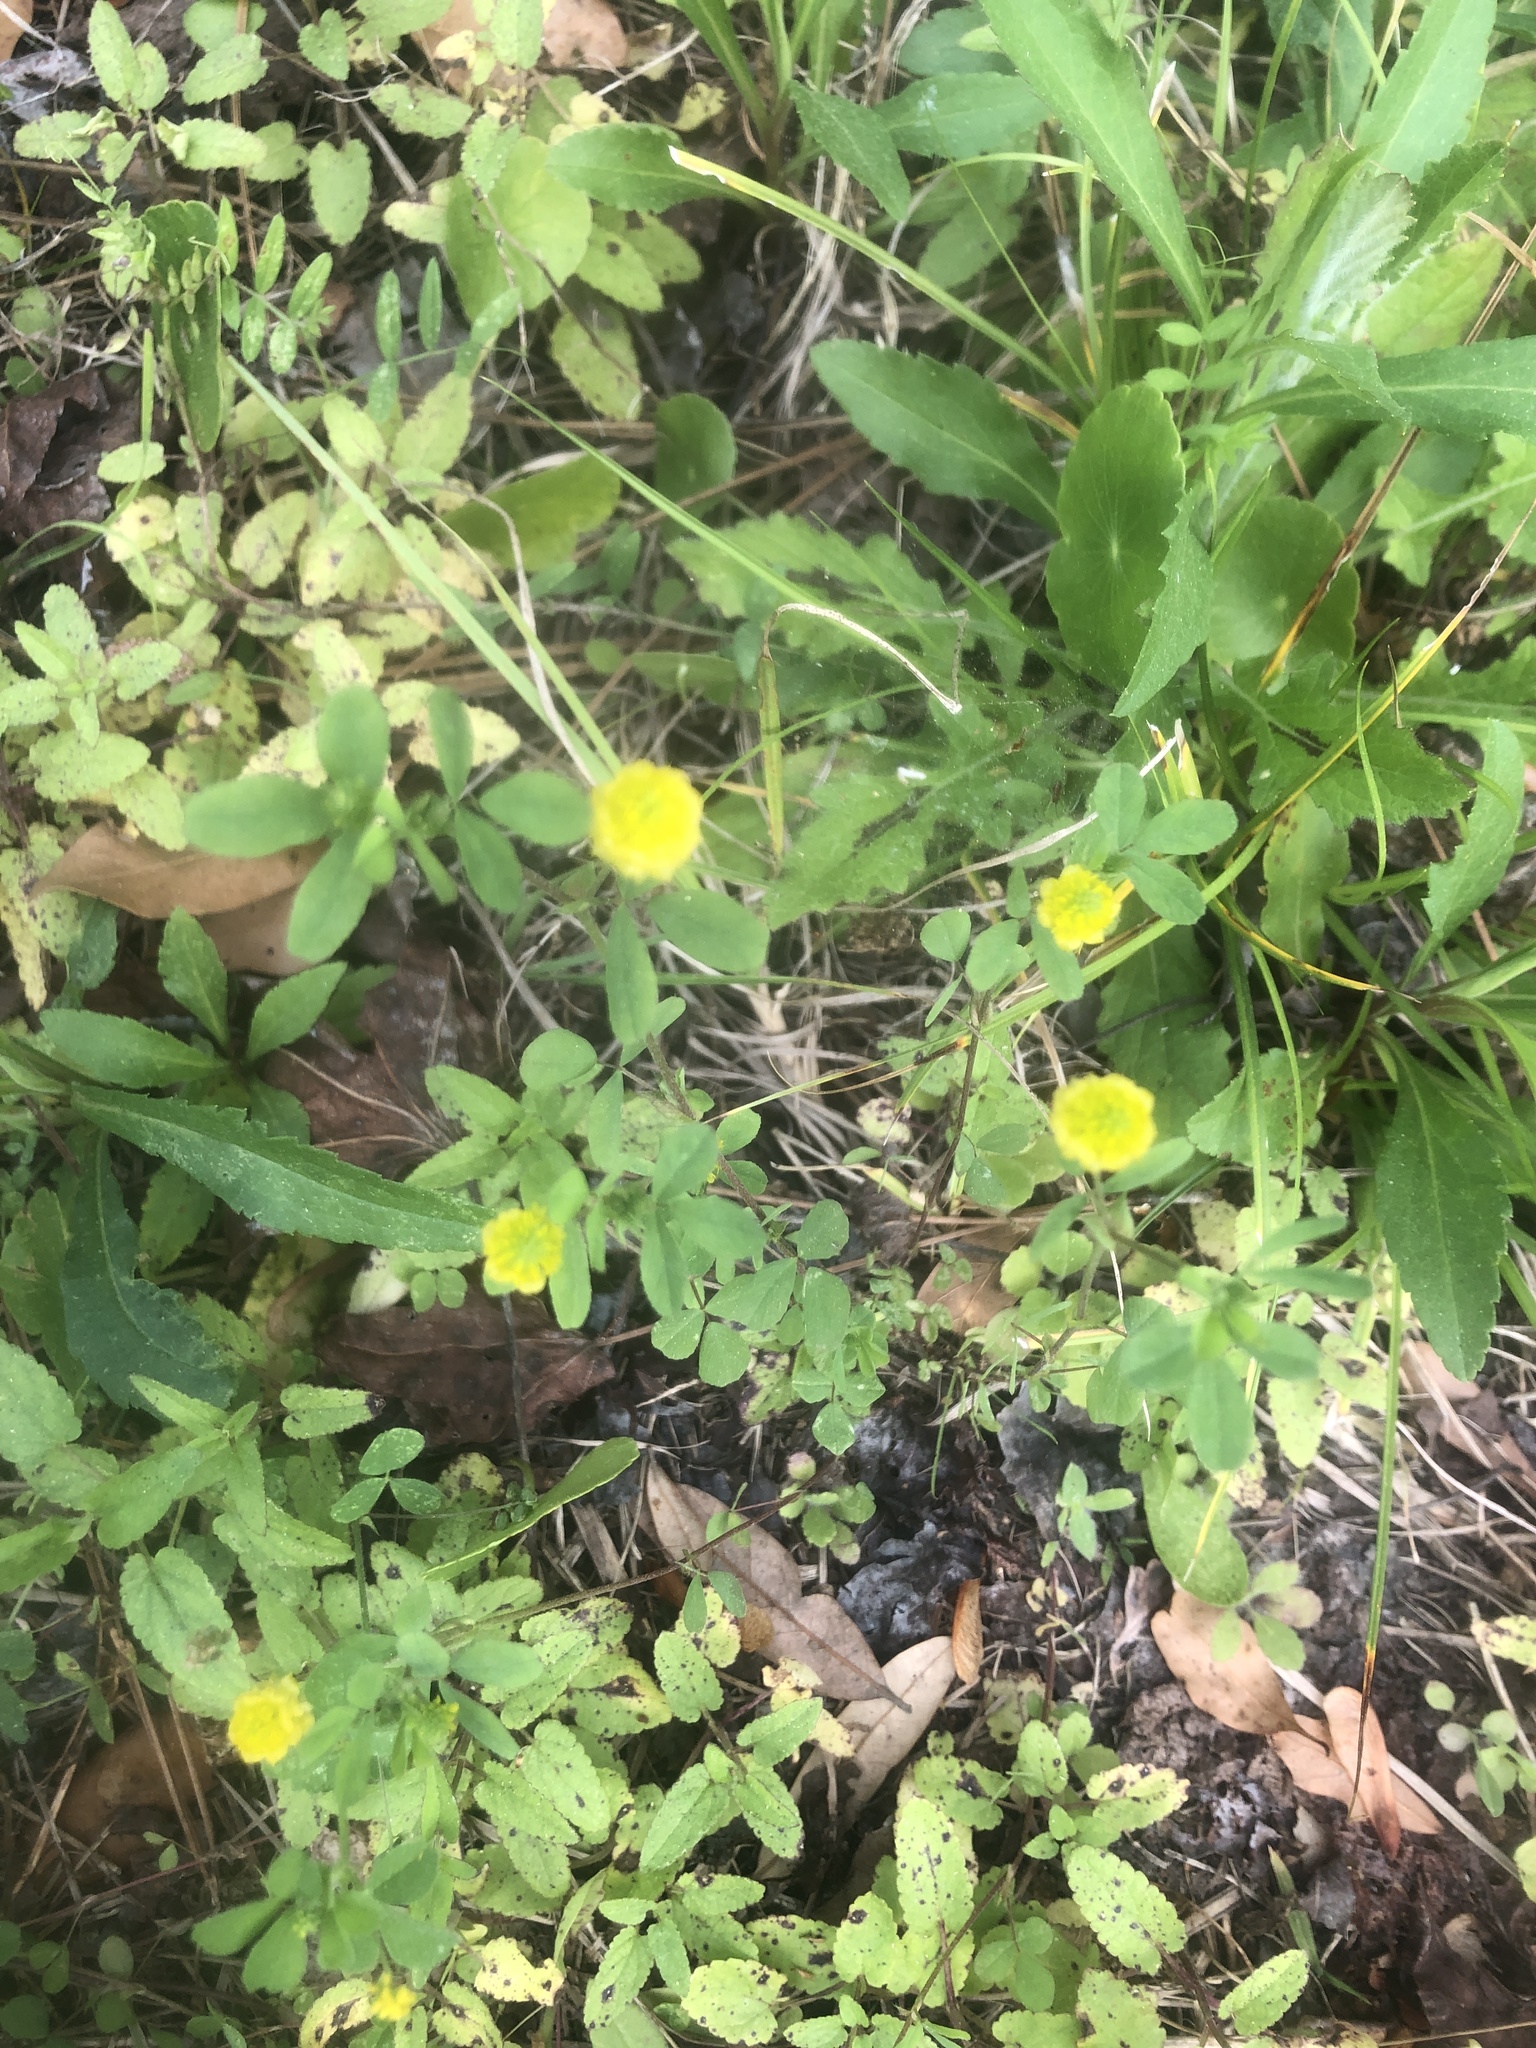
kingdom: Plantae
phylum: Tracheophyta
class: Magnoliopsida
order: Fabales
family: Fabaceae
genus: Trifolium
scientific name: Trifolium campestre
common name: Field clover
